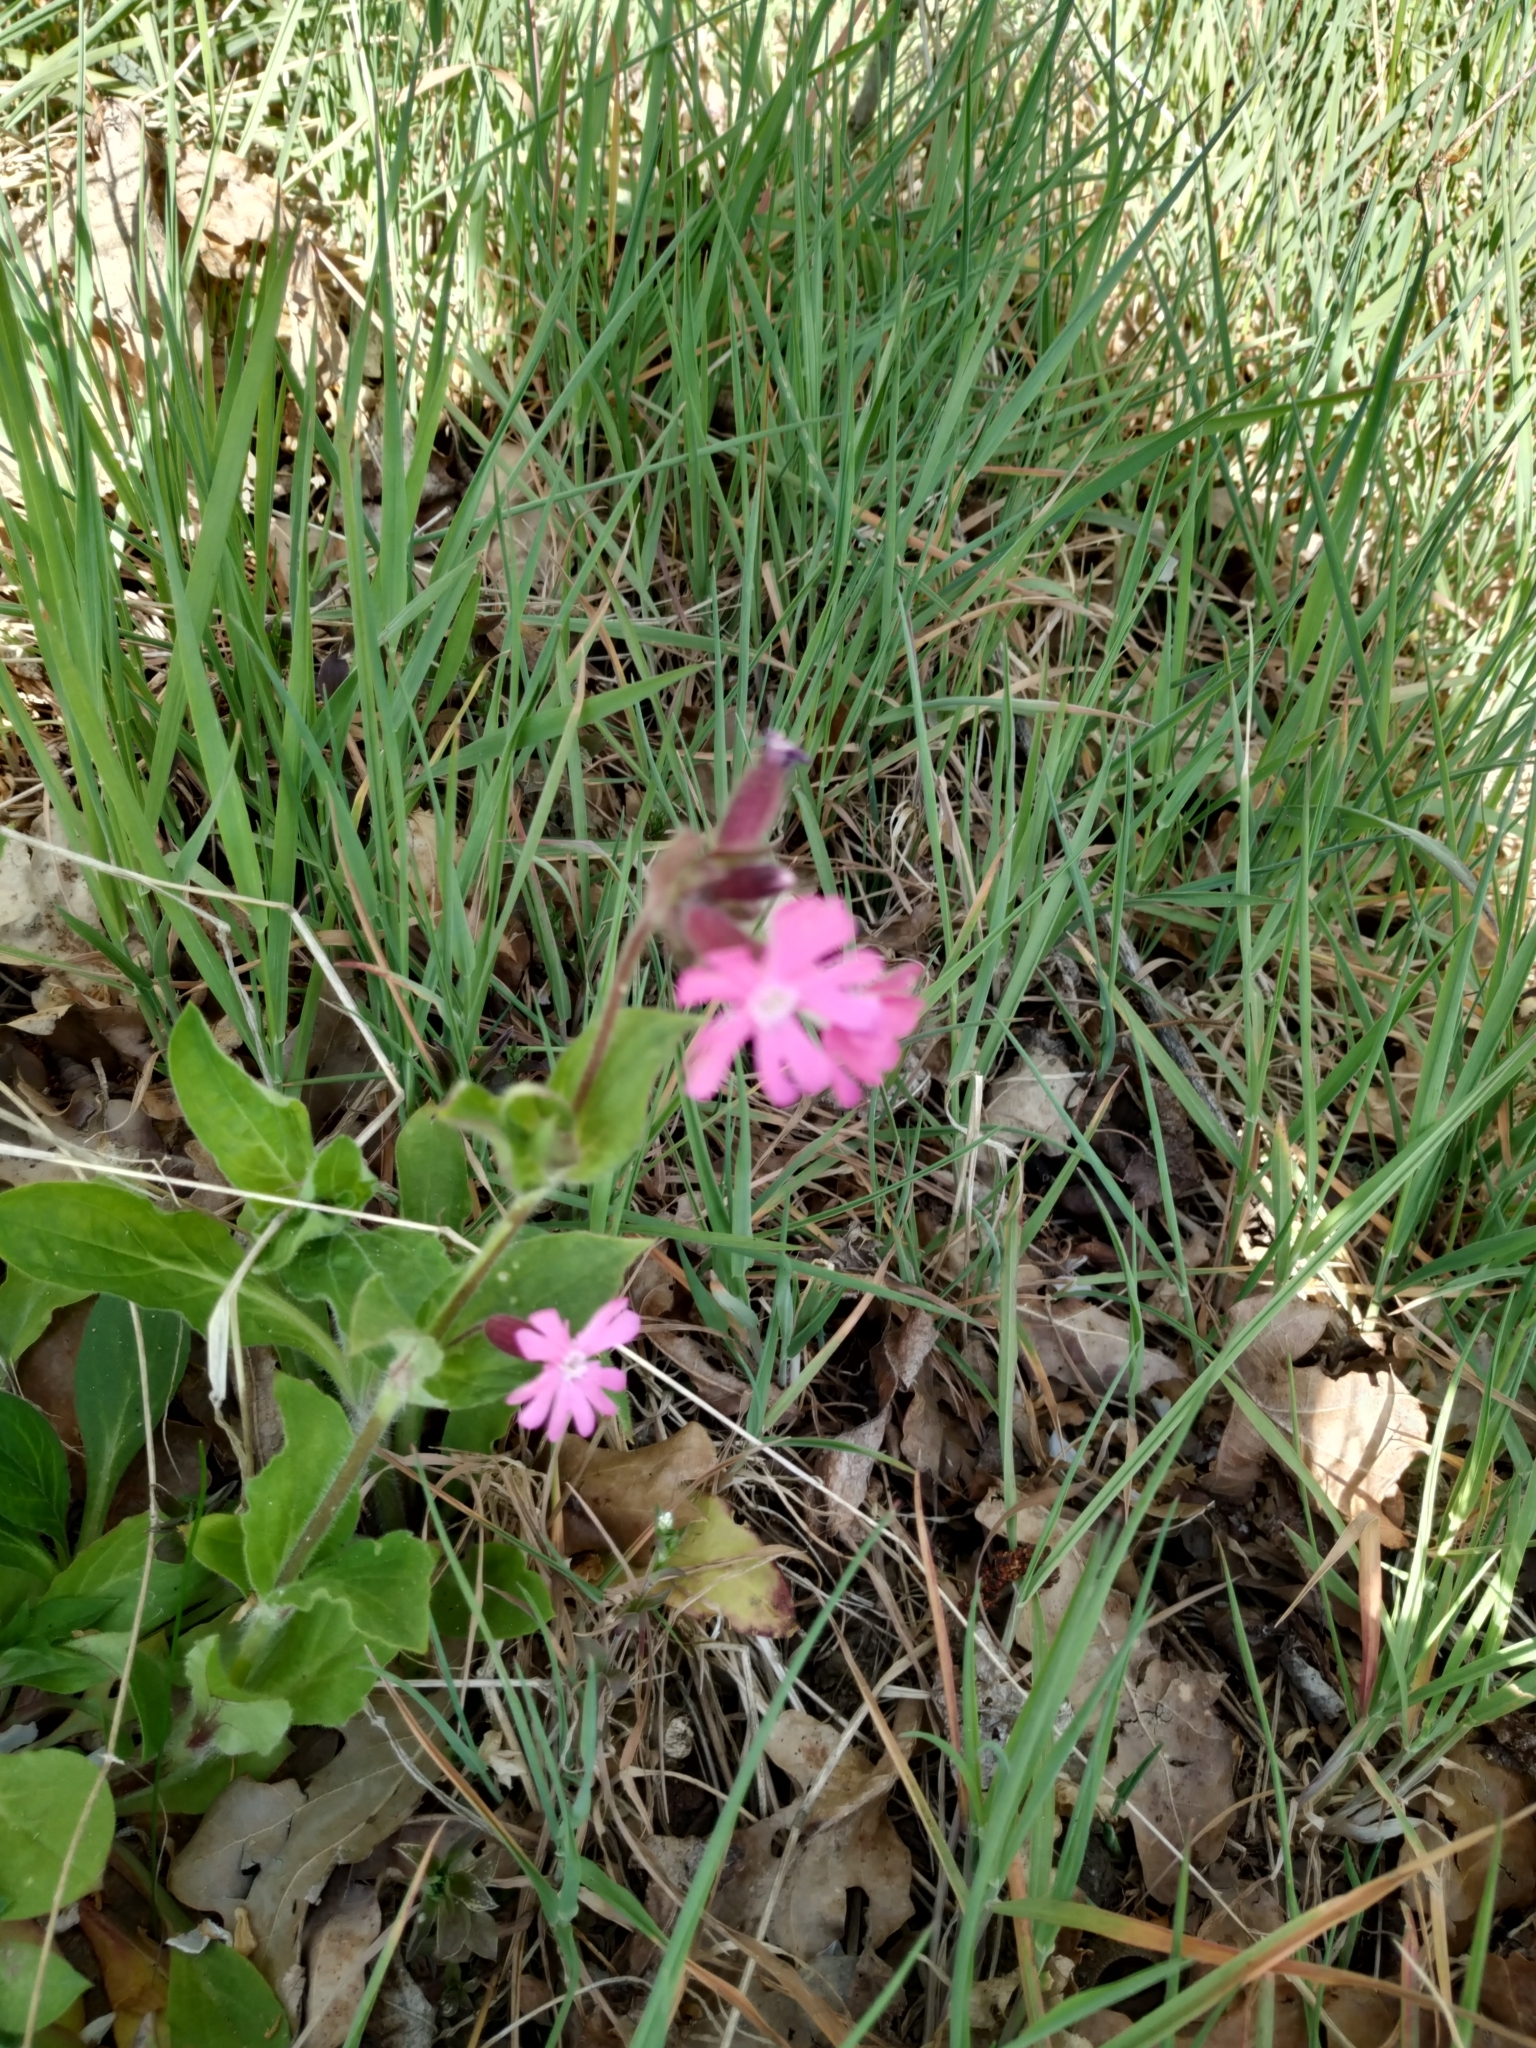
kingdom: Plantae
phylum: Tracheophyta
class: Magnoliopsida
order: Caryophyllales
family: Caryophyllaceae
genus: Silene
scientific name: Silene dioica
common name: Red campion
